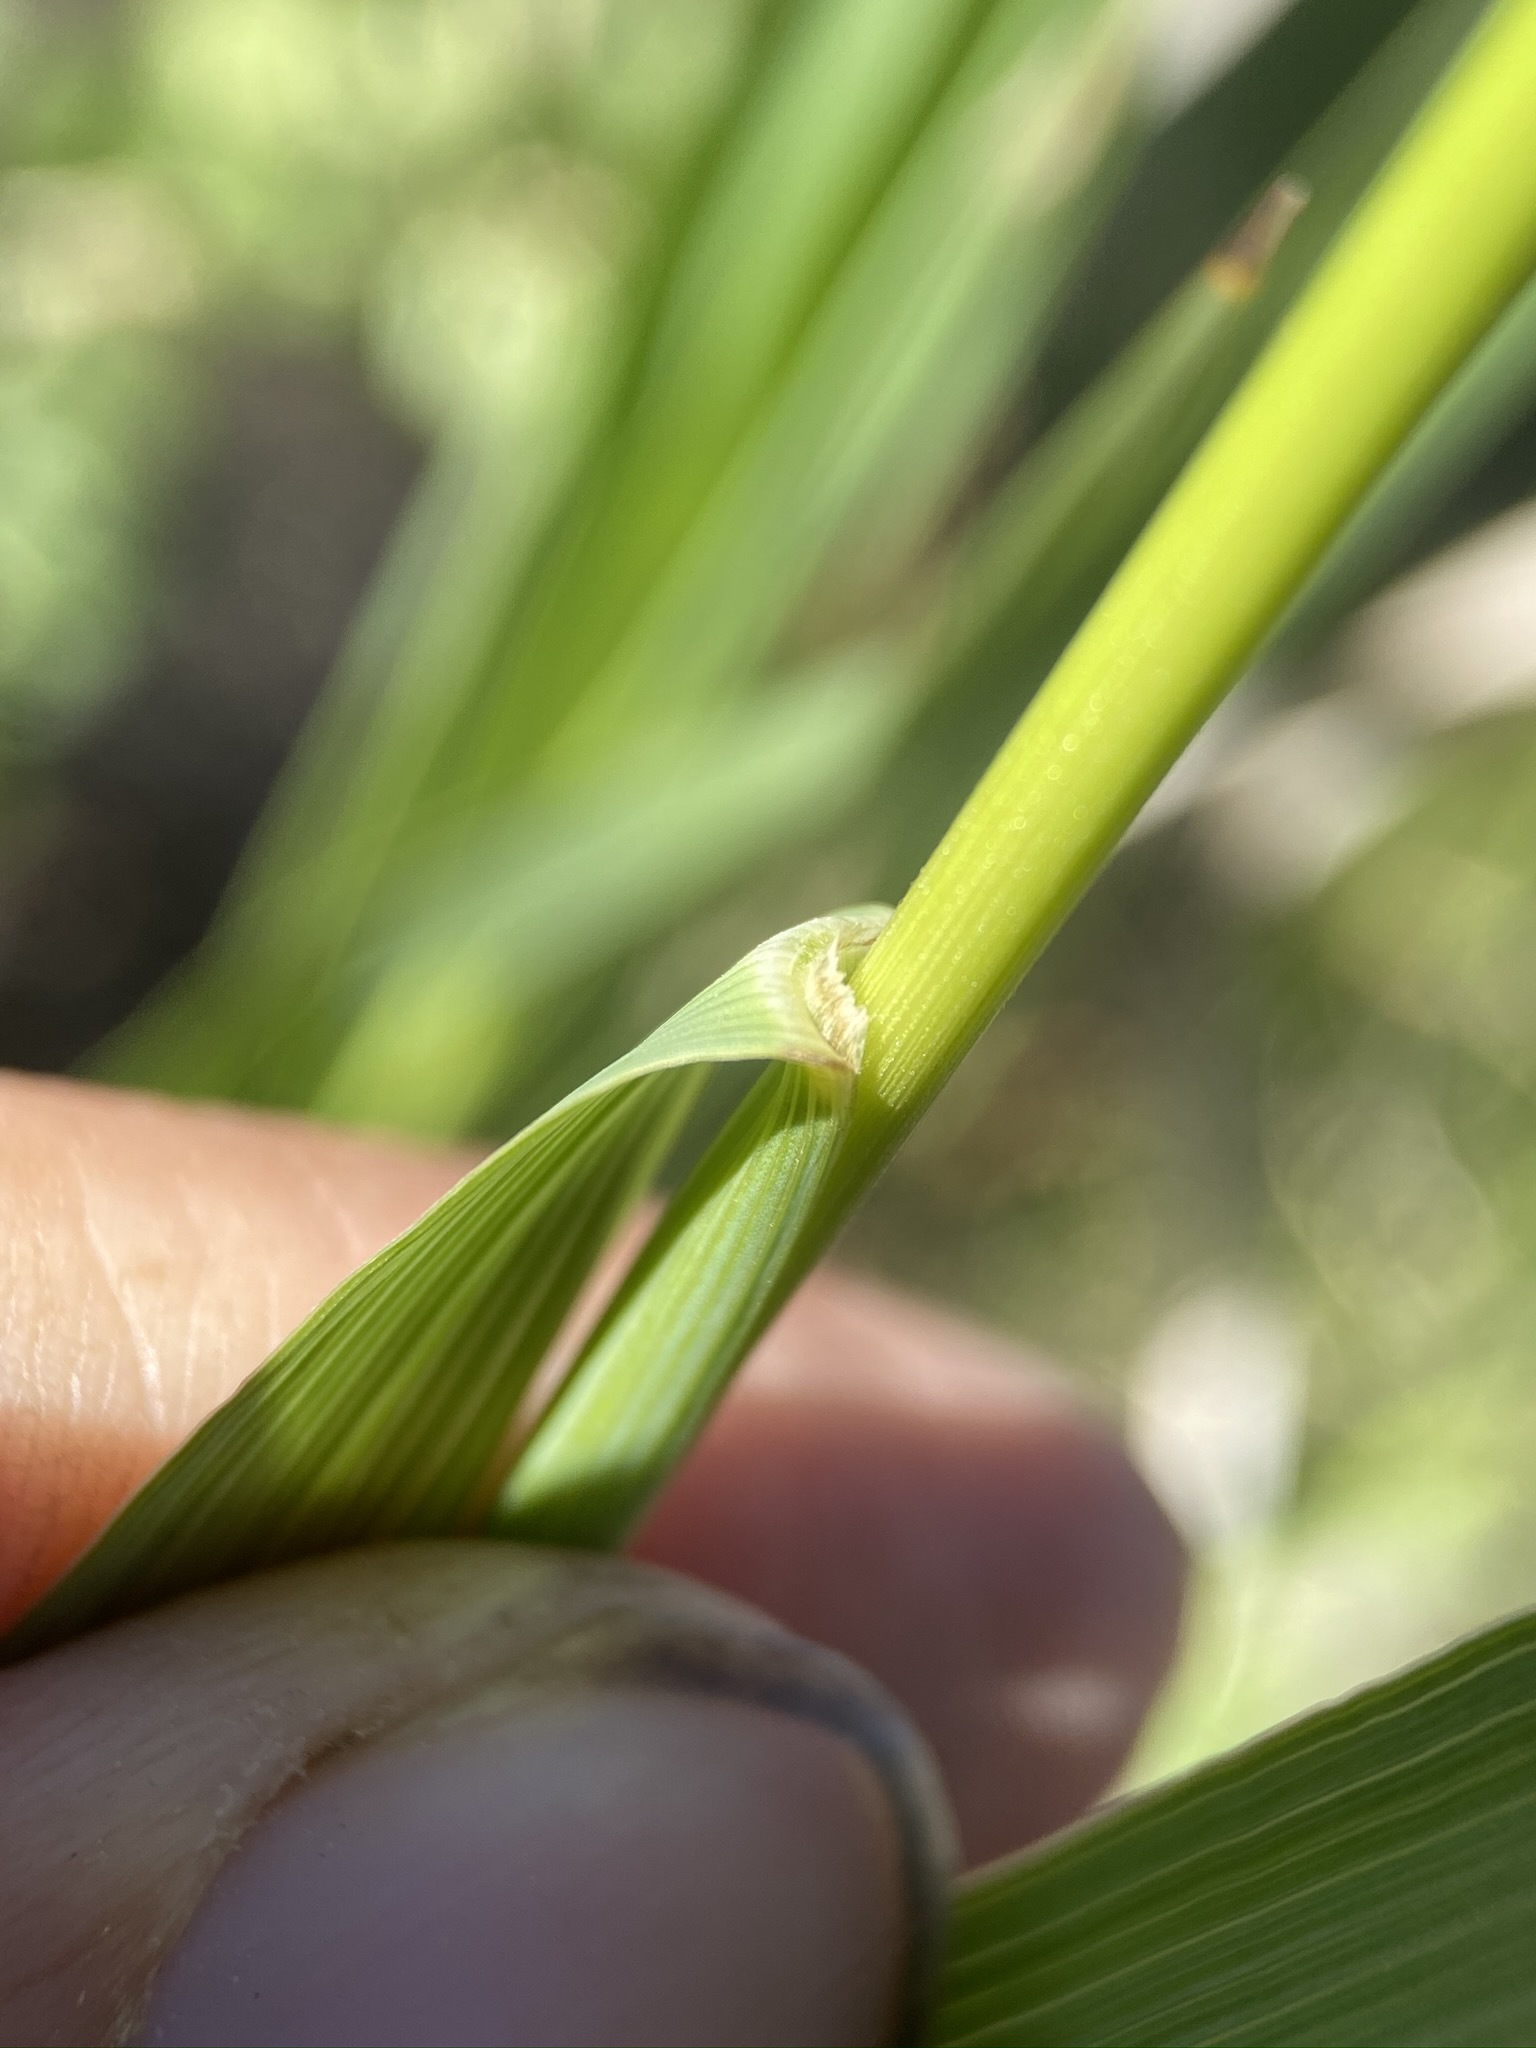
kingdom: Plantae
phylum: Tracheophyta
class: Liliopsida
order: Poales
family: Poaceae
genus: Bromus
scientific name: Bromus inermis
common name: Smooth brome
